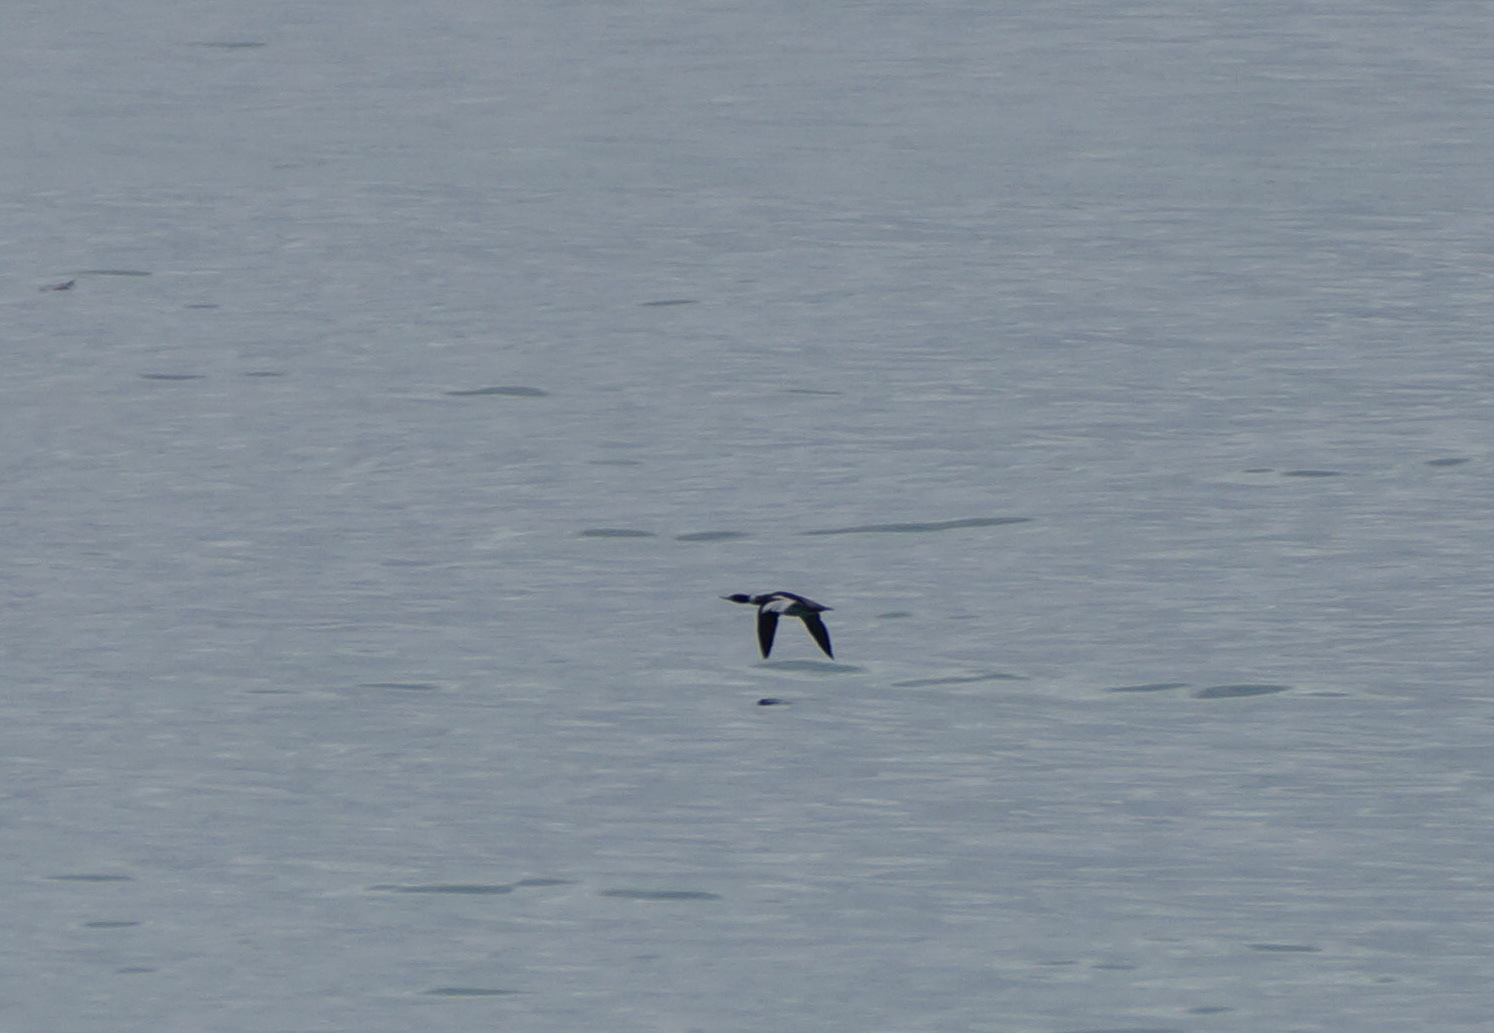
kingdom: Animalia
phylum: Chordata
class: Aves
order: Anseriformes
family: Anatidae
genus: Mergus
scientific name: Mergus serrator
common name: Red-breasted merganser
